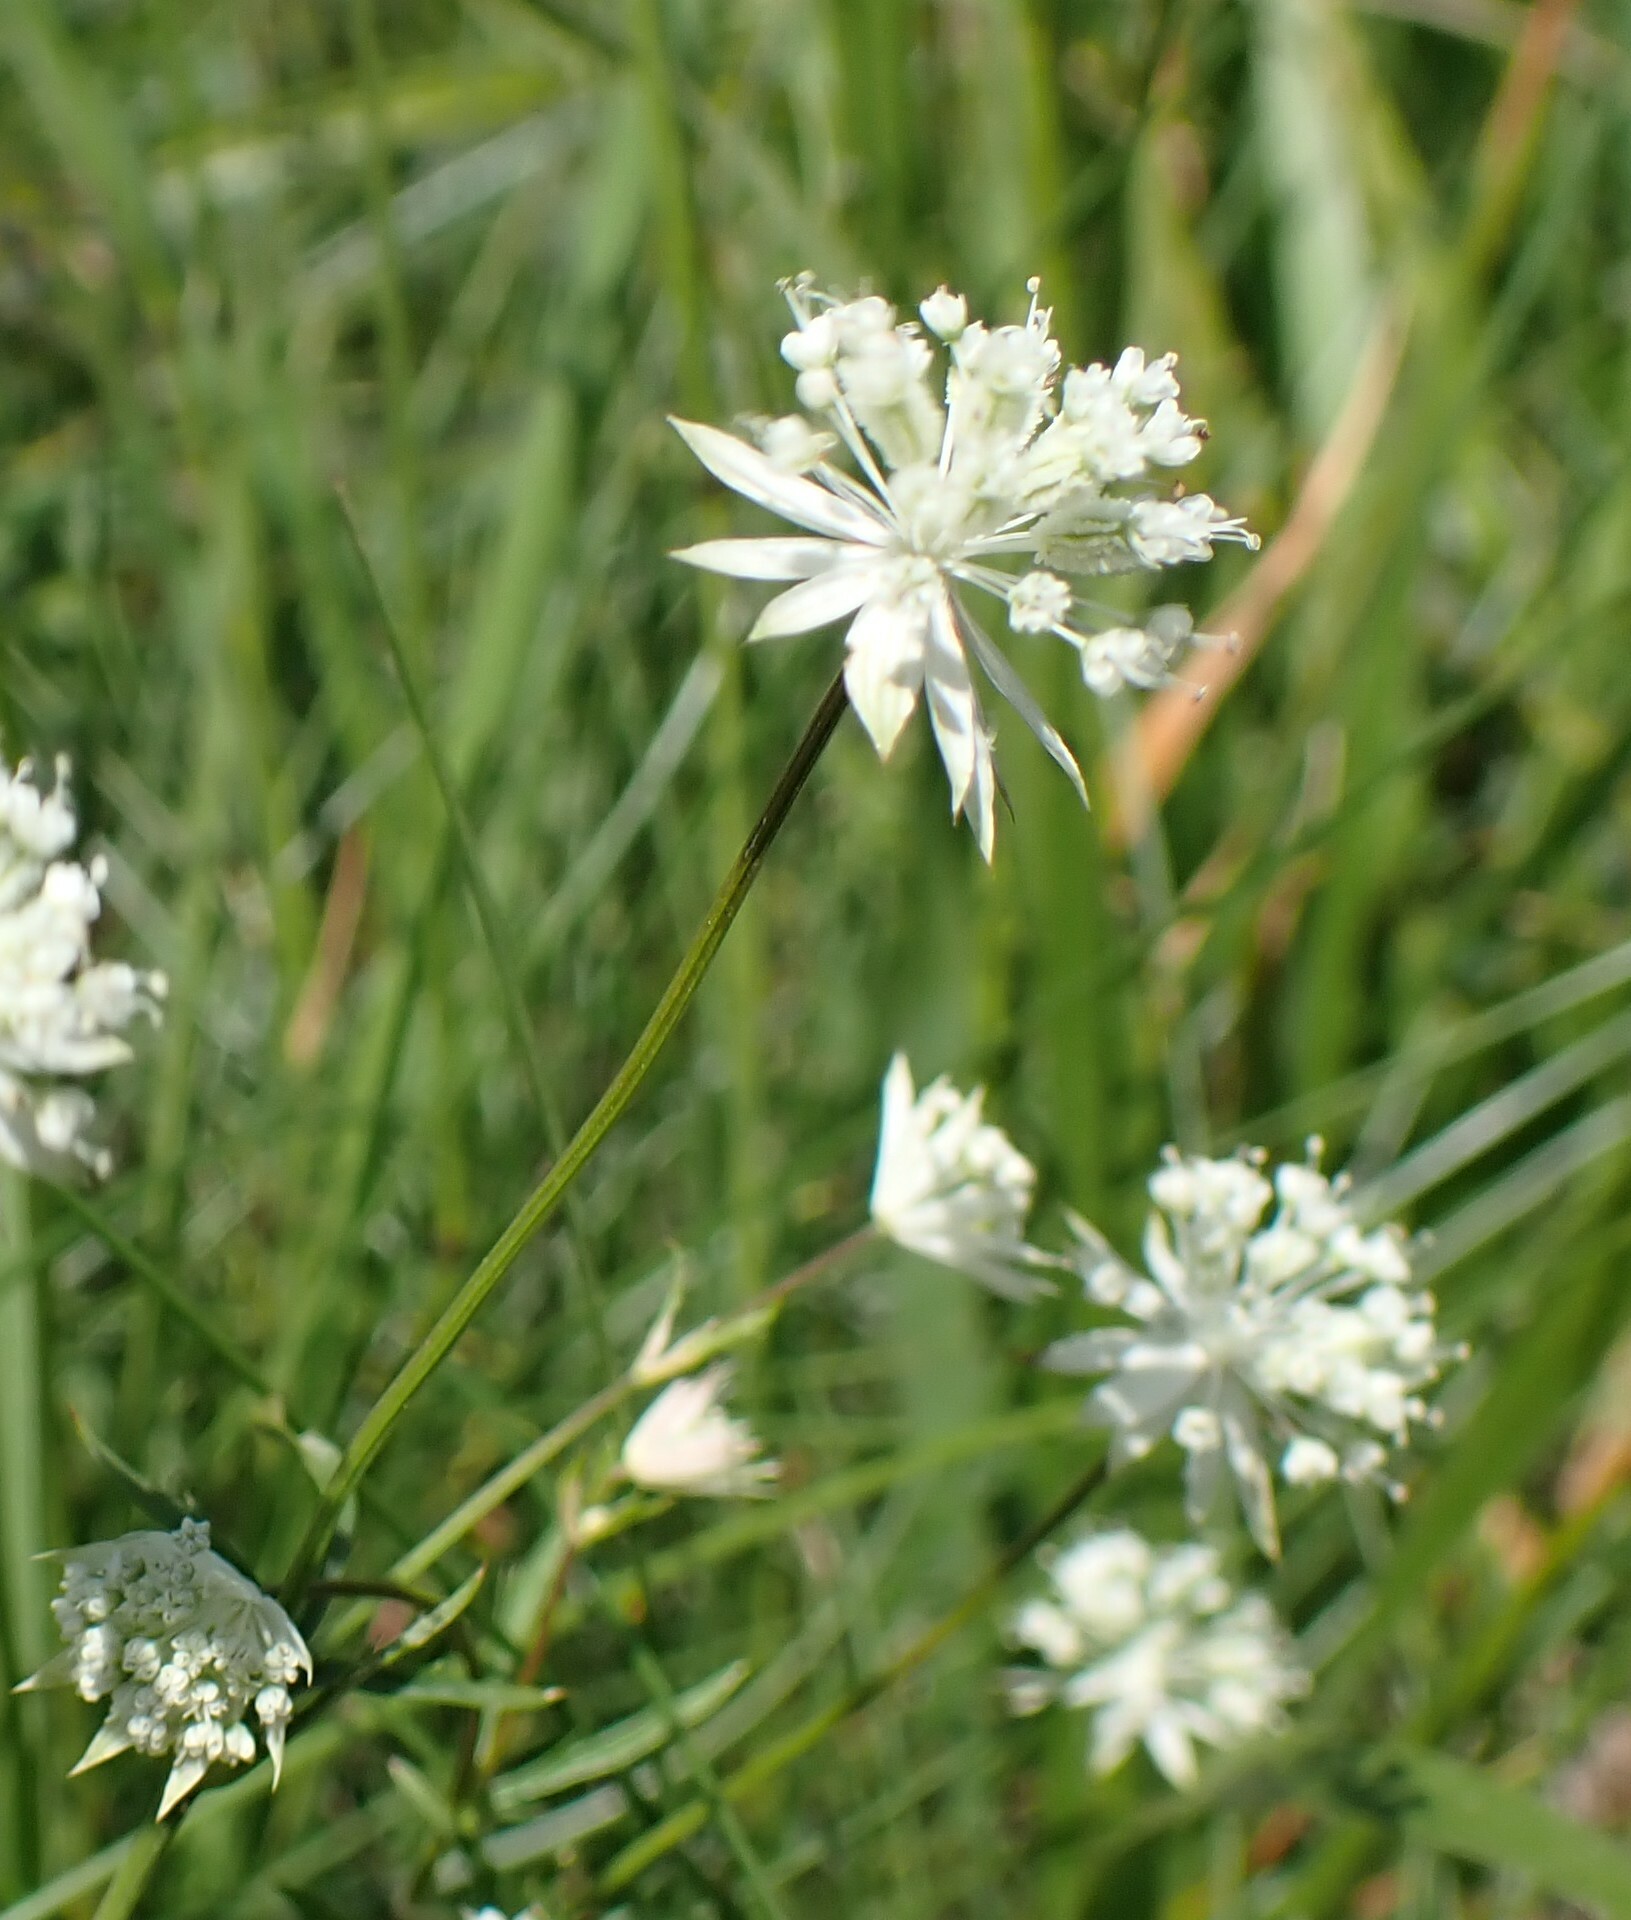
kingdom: Plantae
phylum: Tracheophyta
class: Magnoliopsida
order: Apiales
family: Apiaceae
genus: Astrantia
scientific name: Astrantia minor
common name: Lesser masterwort
